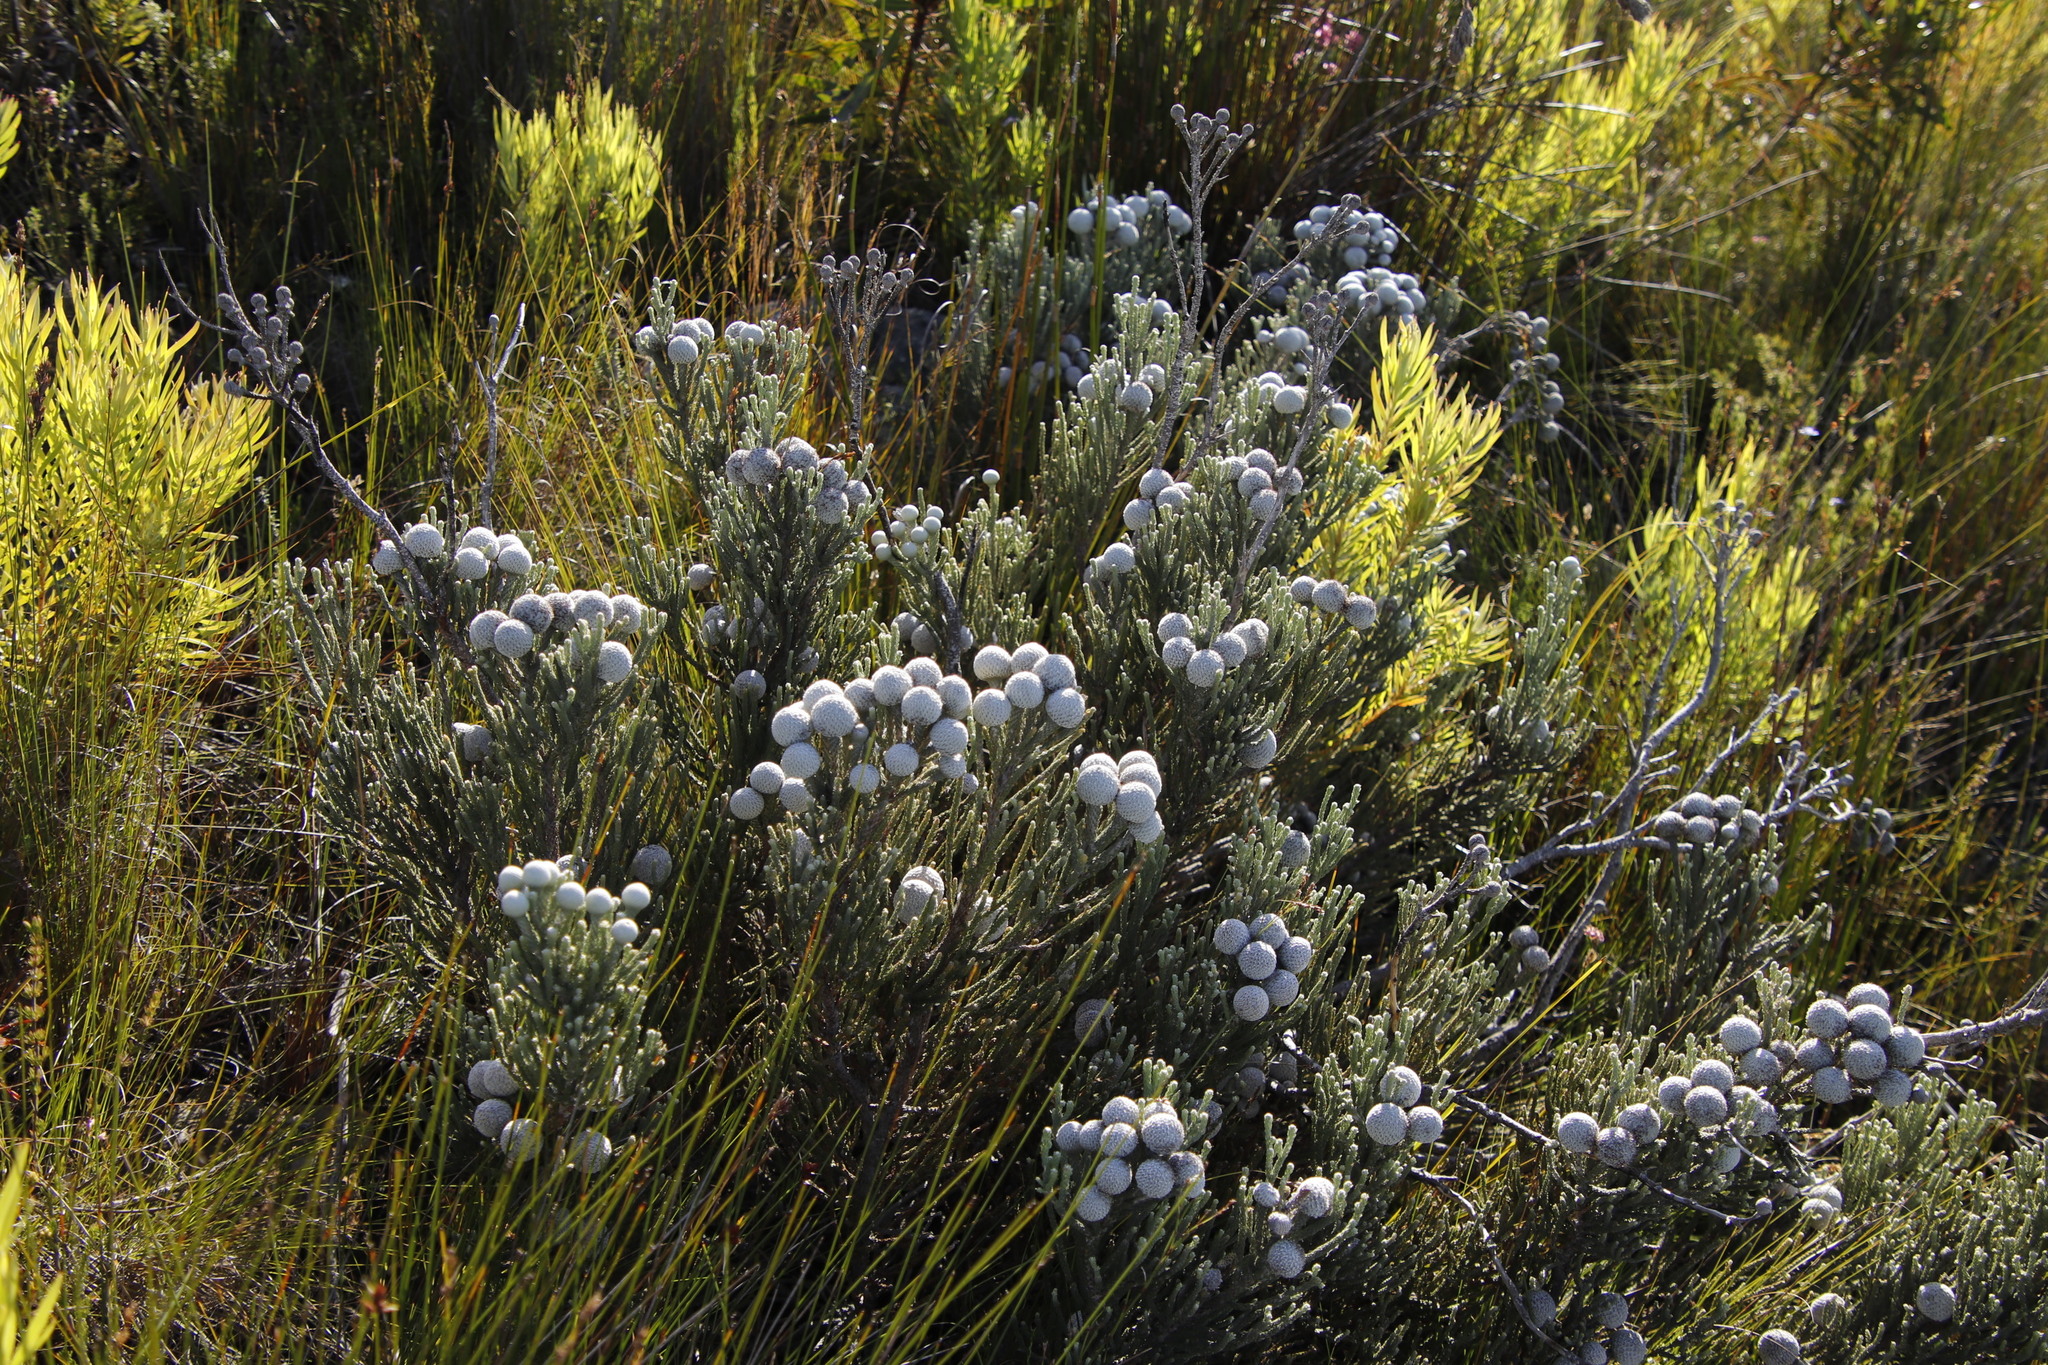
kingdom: Plantae
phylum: Tracheophyta
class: Magnoliopsida
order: Bruniales
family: Bruniaceae
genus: Brunia
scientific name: Brunia laevis
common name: Silver brunia
